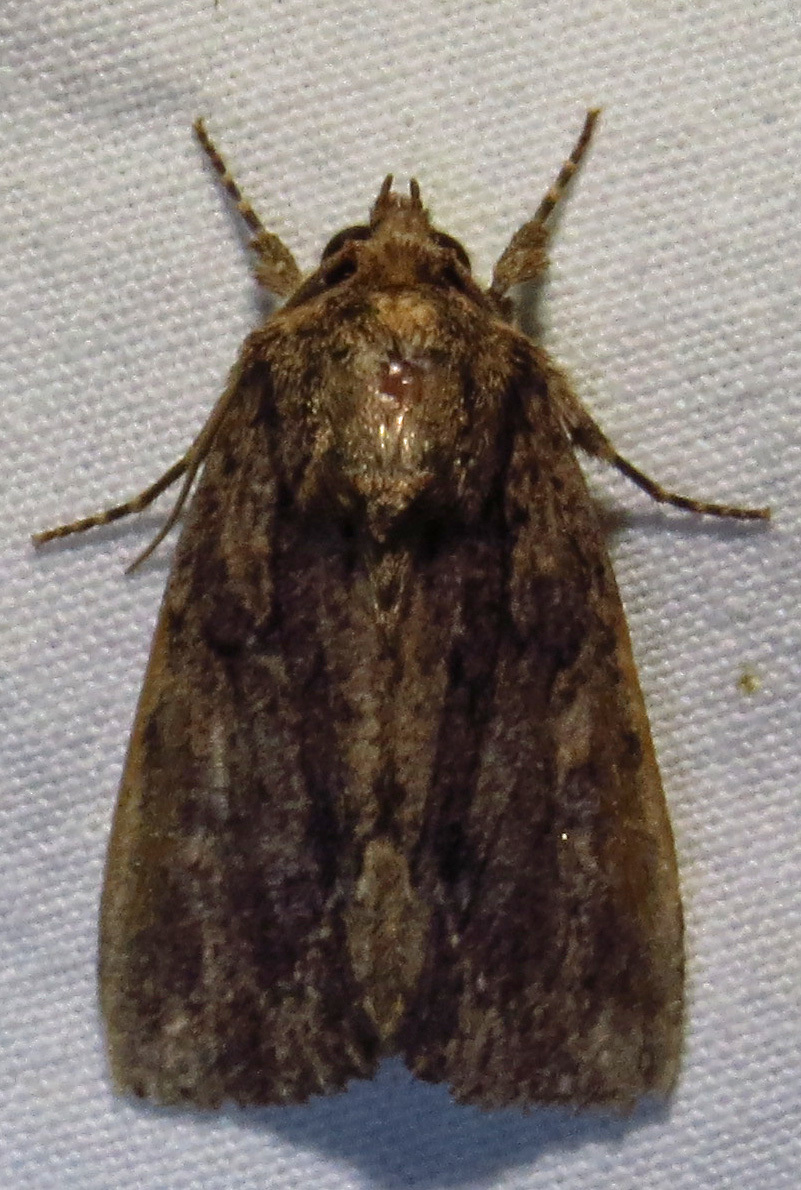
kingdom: Animalia
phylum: Arthropoda
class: Insecta
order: Lepidoptera
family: Noctuidae
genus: Phosphila
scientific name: Phosphila miselioides
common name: Spotted phosphila moth
